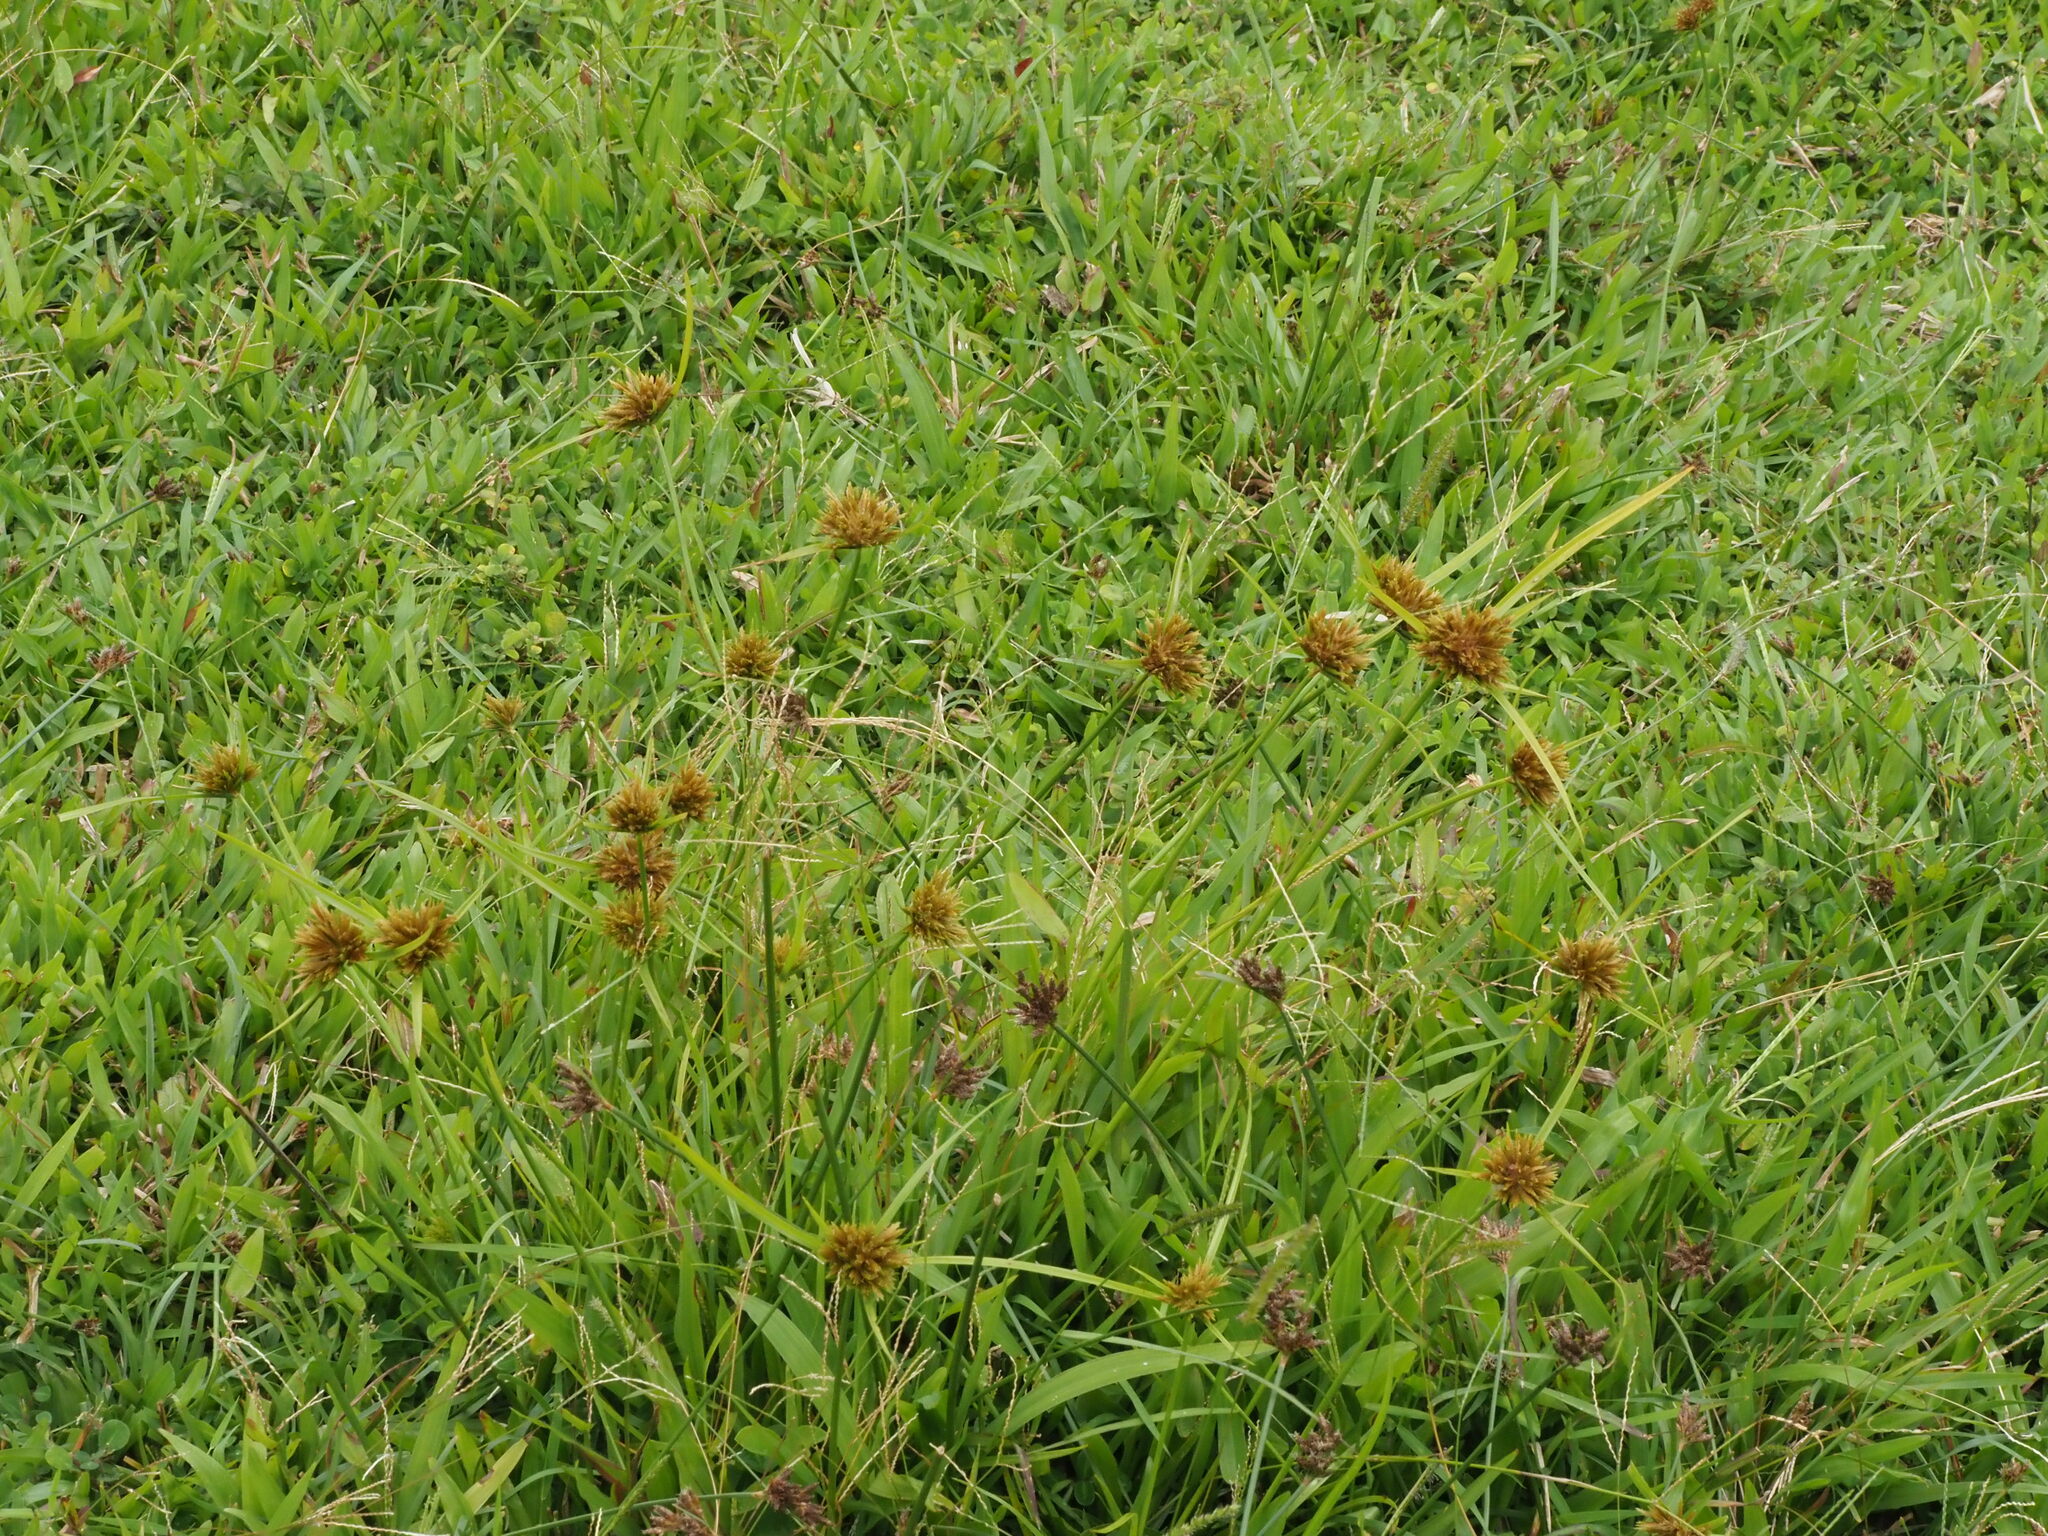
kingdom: Plantae
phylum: Tracheophyta
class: Liliopsida
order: Poales
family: Cyperaceae
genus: Cyperus
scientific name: Cyperus polystachyos
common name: Bunchy flat sedge
